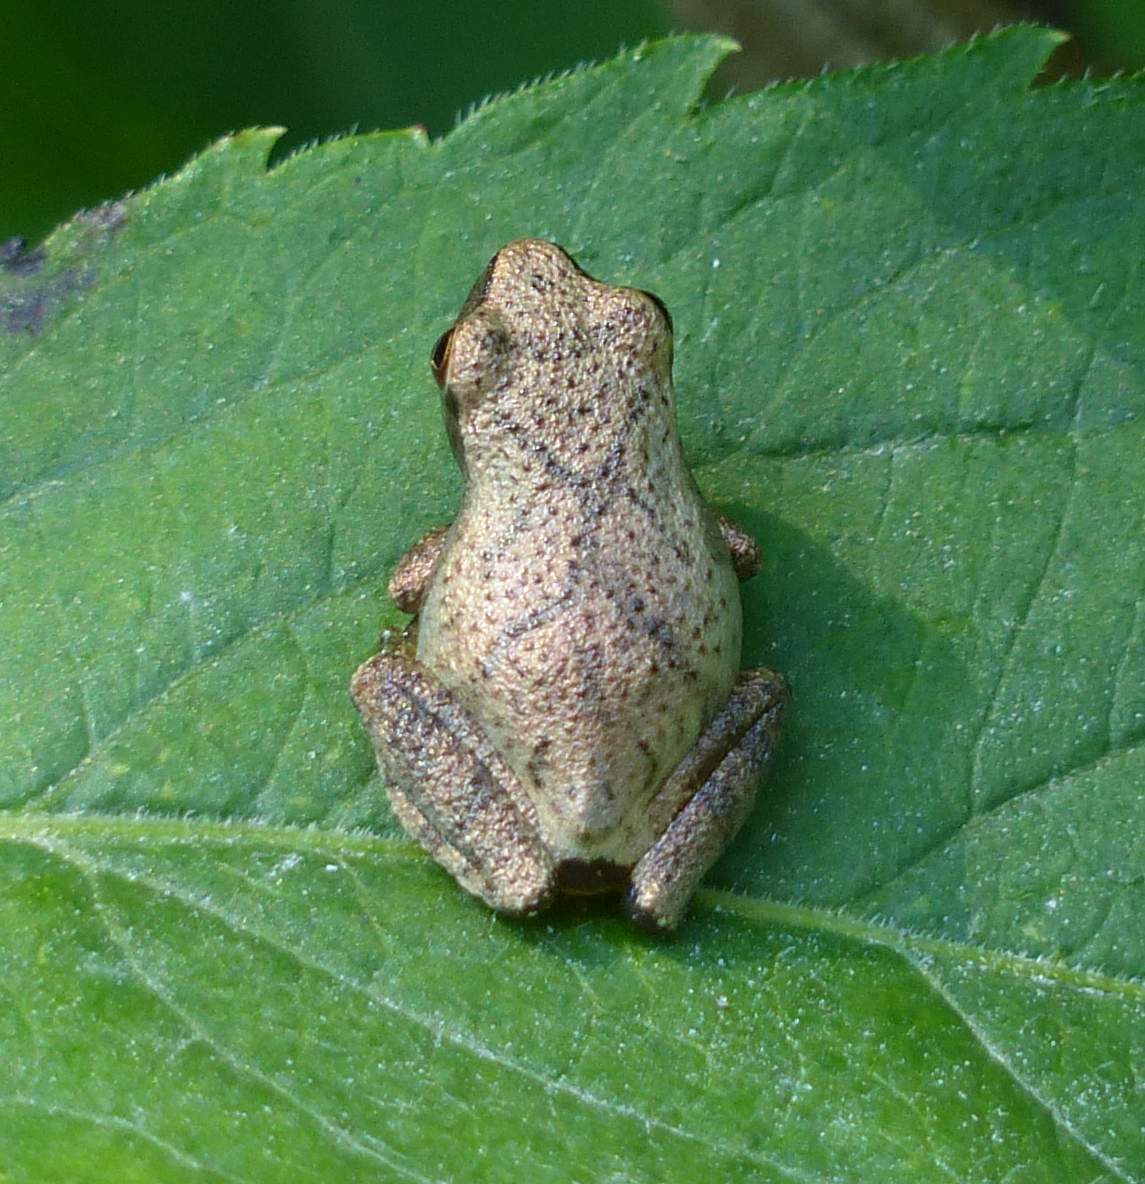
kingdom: Animalia
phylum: Chordata
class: Amphibia
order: Anura
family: Hylidae
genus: Pseudacris
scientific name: Pseudacris crucifer
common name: Spring peeper
